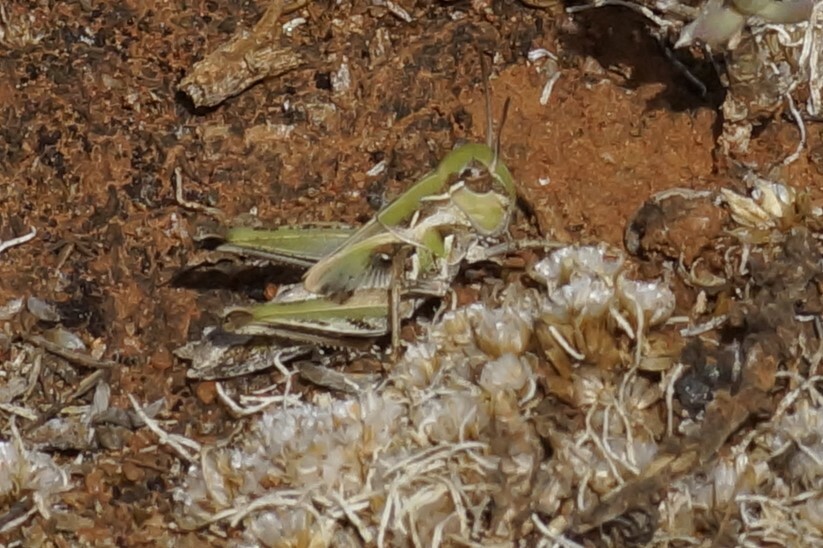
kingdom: Animalia
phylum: Arthropoda
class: Insecta
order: Orthoptera
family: Acrididae
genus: Oedaleus
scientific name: Oedaleus australis
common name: Eastern oedaleus
